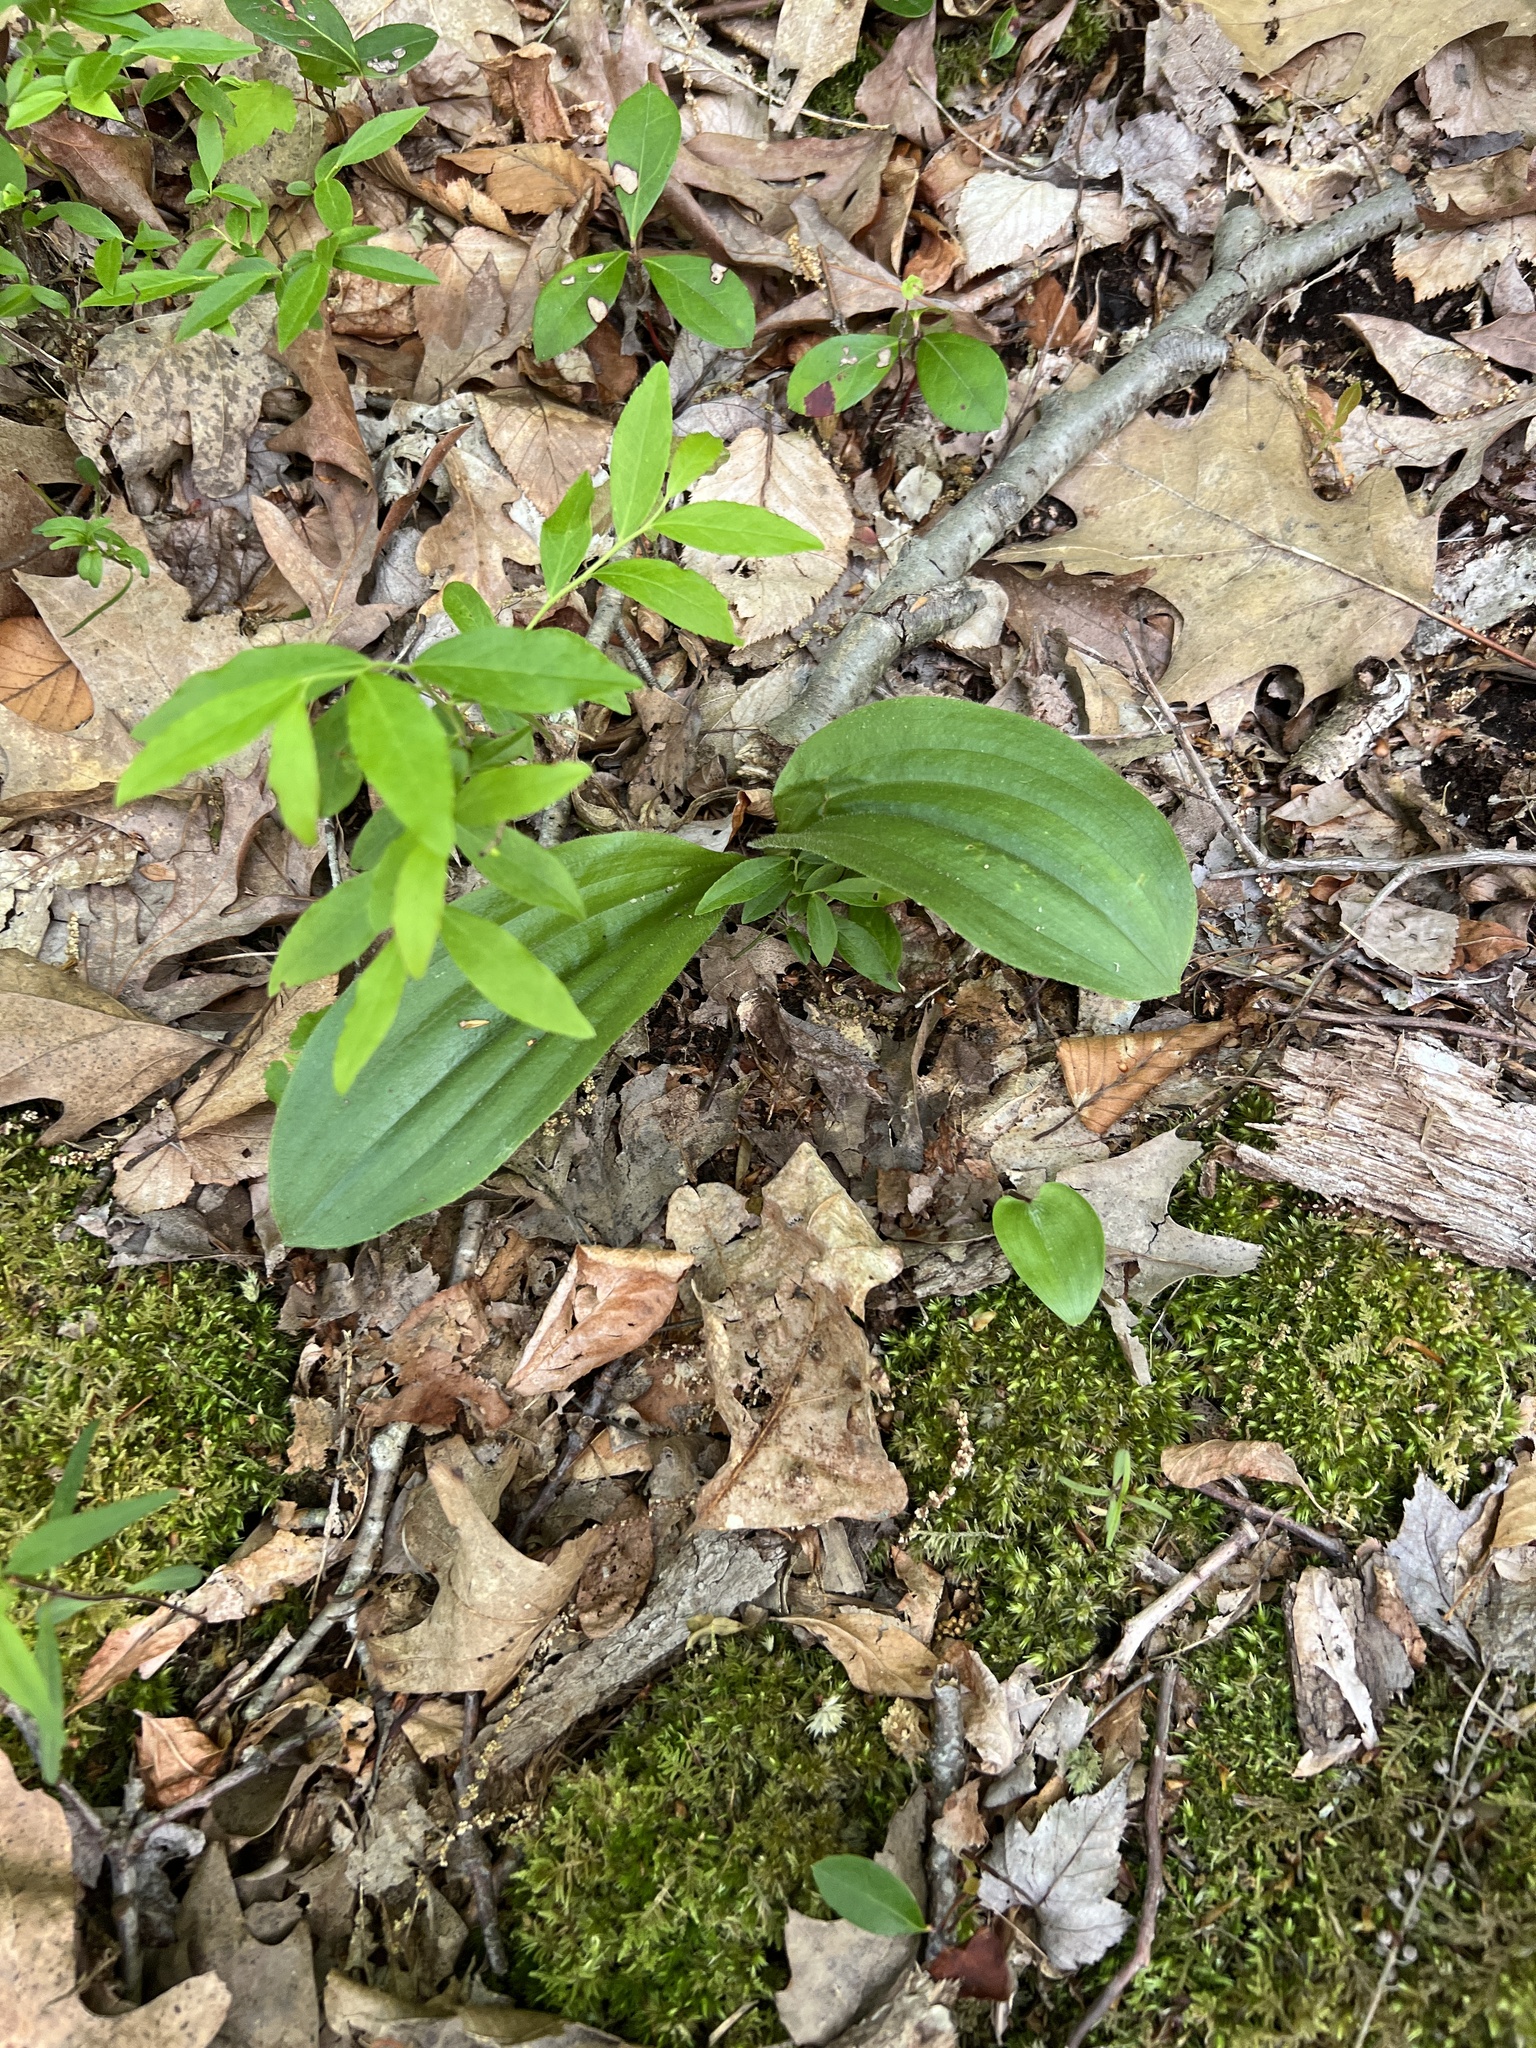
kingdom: Plantae
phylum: Tracheophyta
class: Liliopsida
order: Asparagales
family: Orchidaceae
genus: Cypripedium
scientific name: Cypripedium acaule
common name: Pink lady's-slipper
